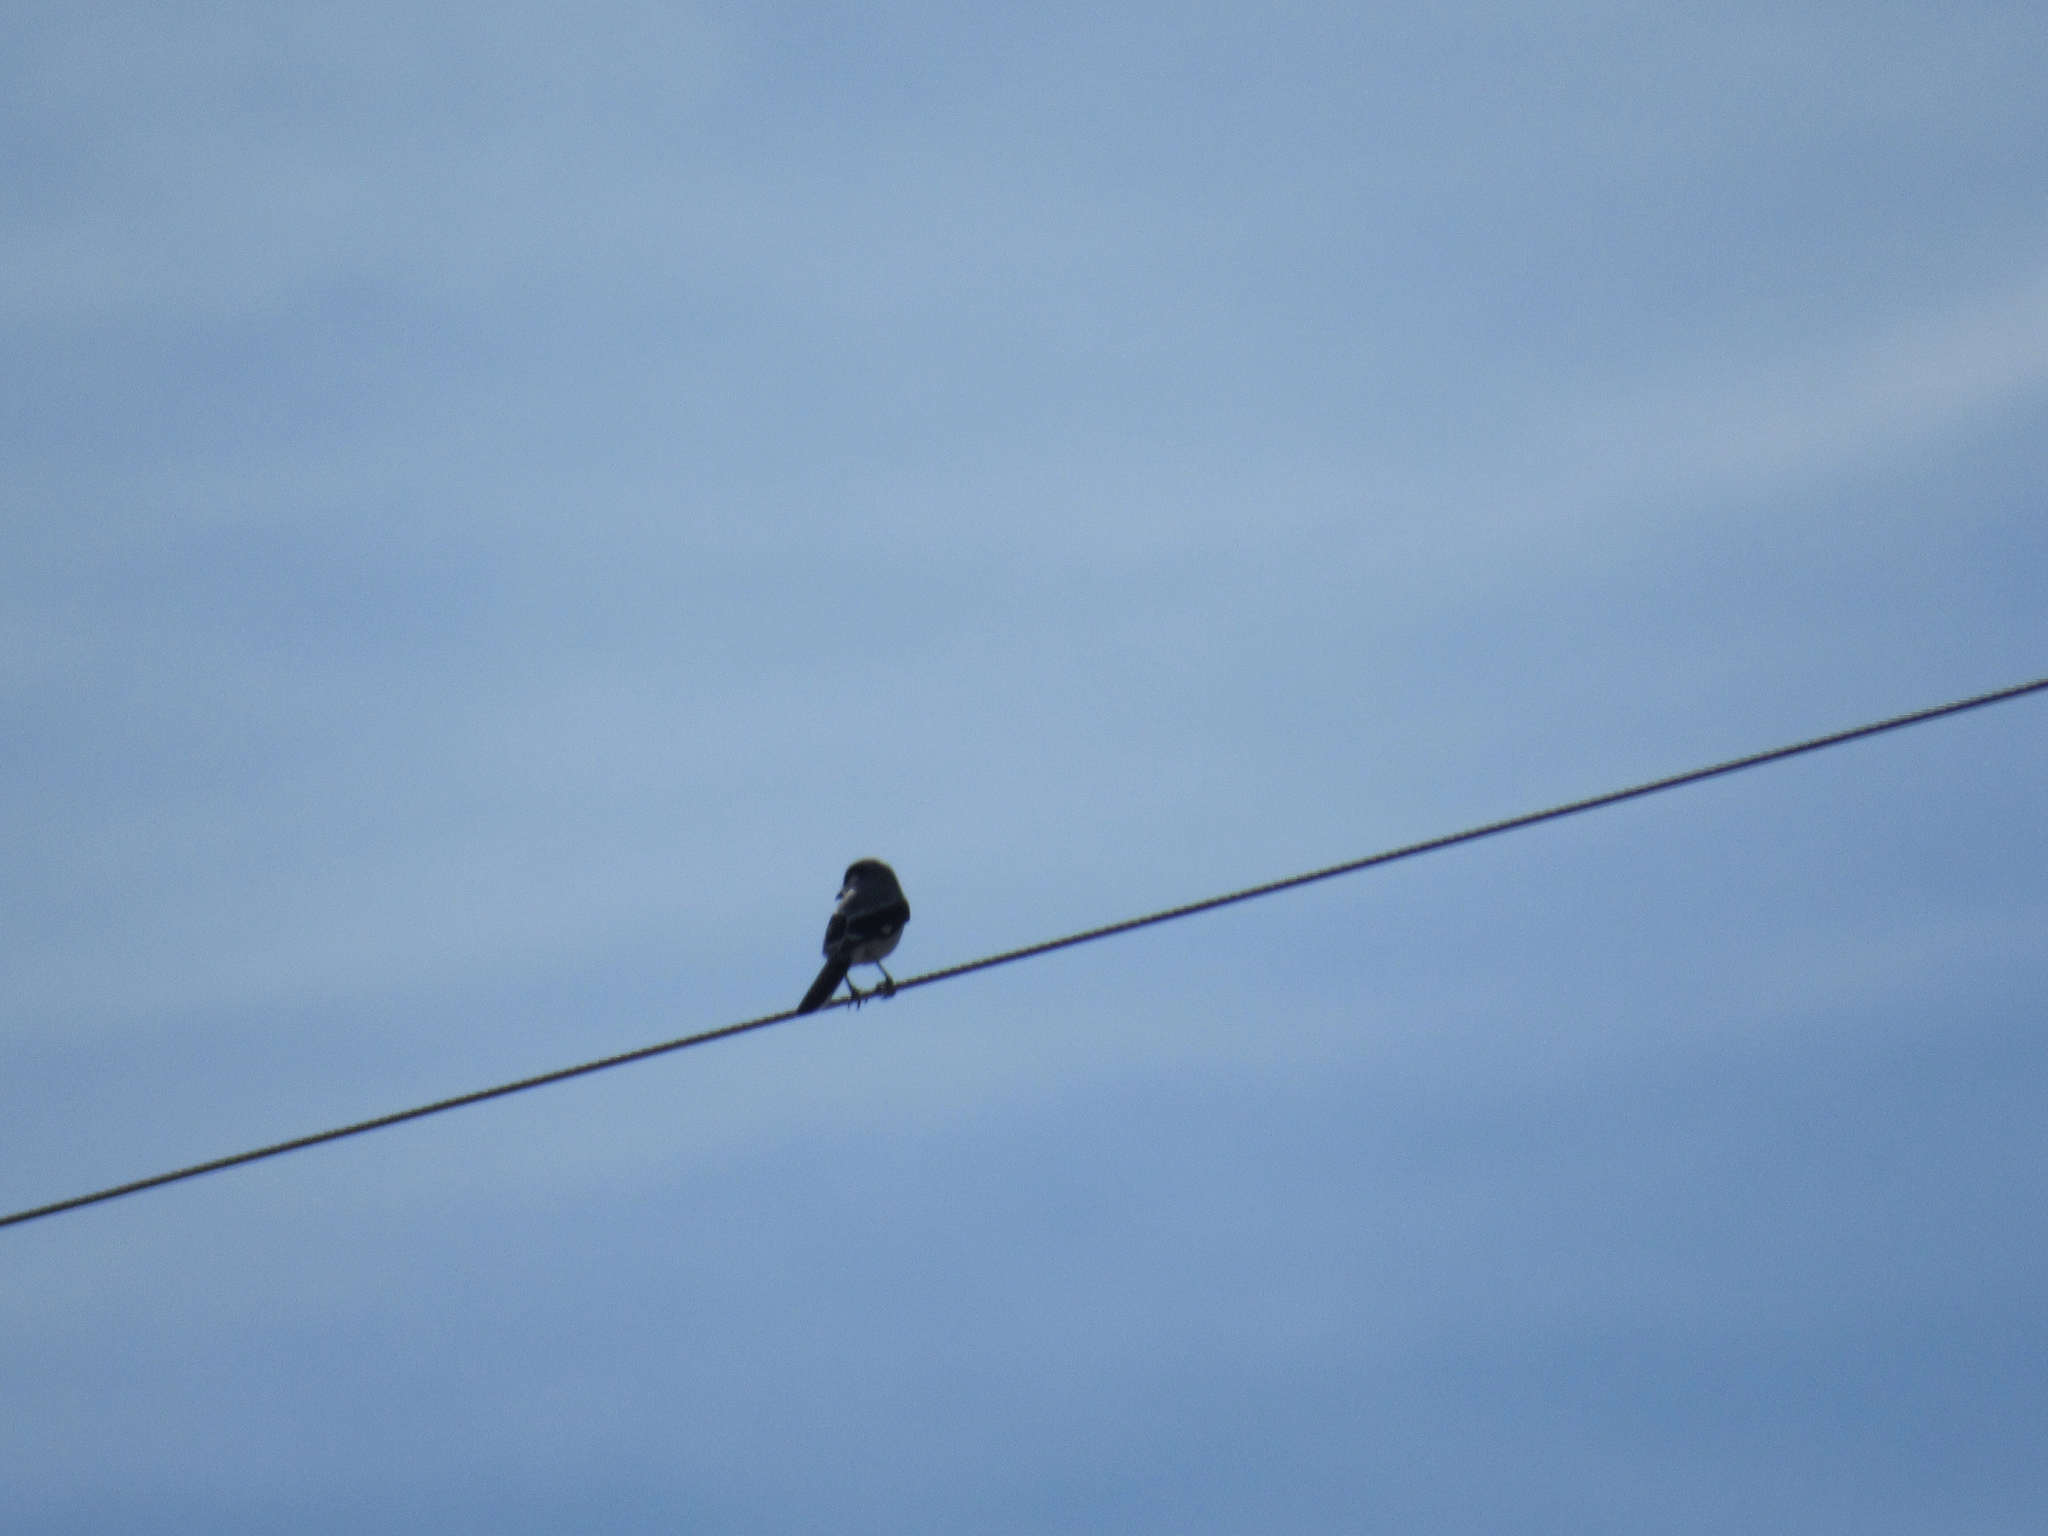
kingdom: Animalia
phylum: Chordata
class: Aves
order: Passeriformes
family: Laniidae
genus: Lanius
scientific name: Lanius ludovicianus
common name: Loggerhead shrike
